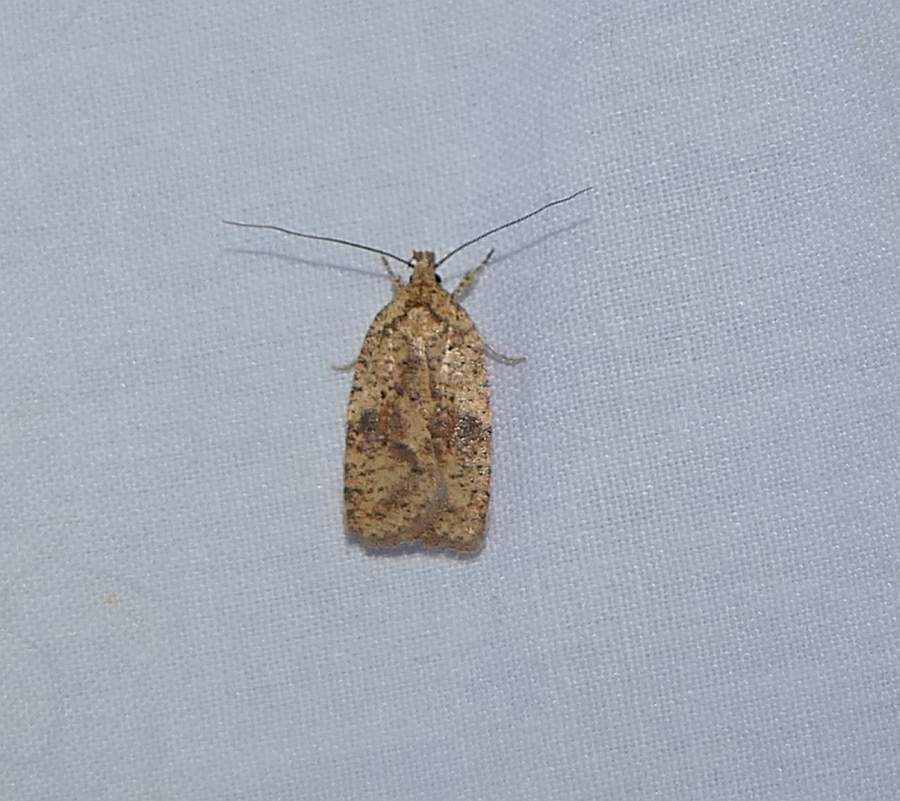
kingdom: Animalia
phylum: Arthropoda
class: Insecta
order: Lepidoptera
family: Depressariidae
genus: Agonopterix
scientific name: Agonopterix thelmae
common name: Thelma's agonopterix moth
